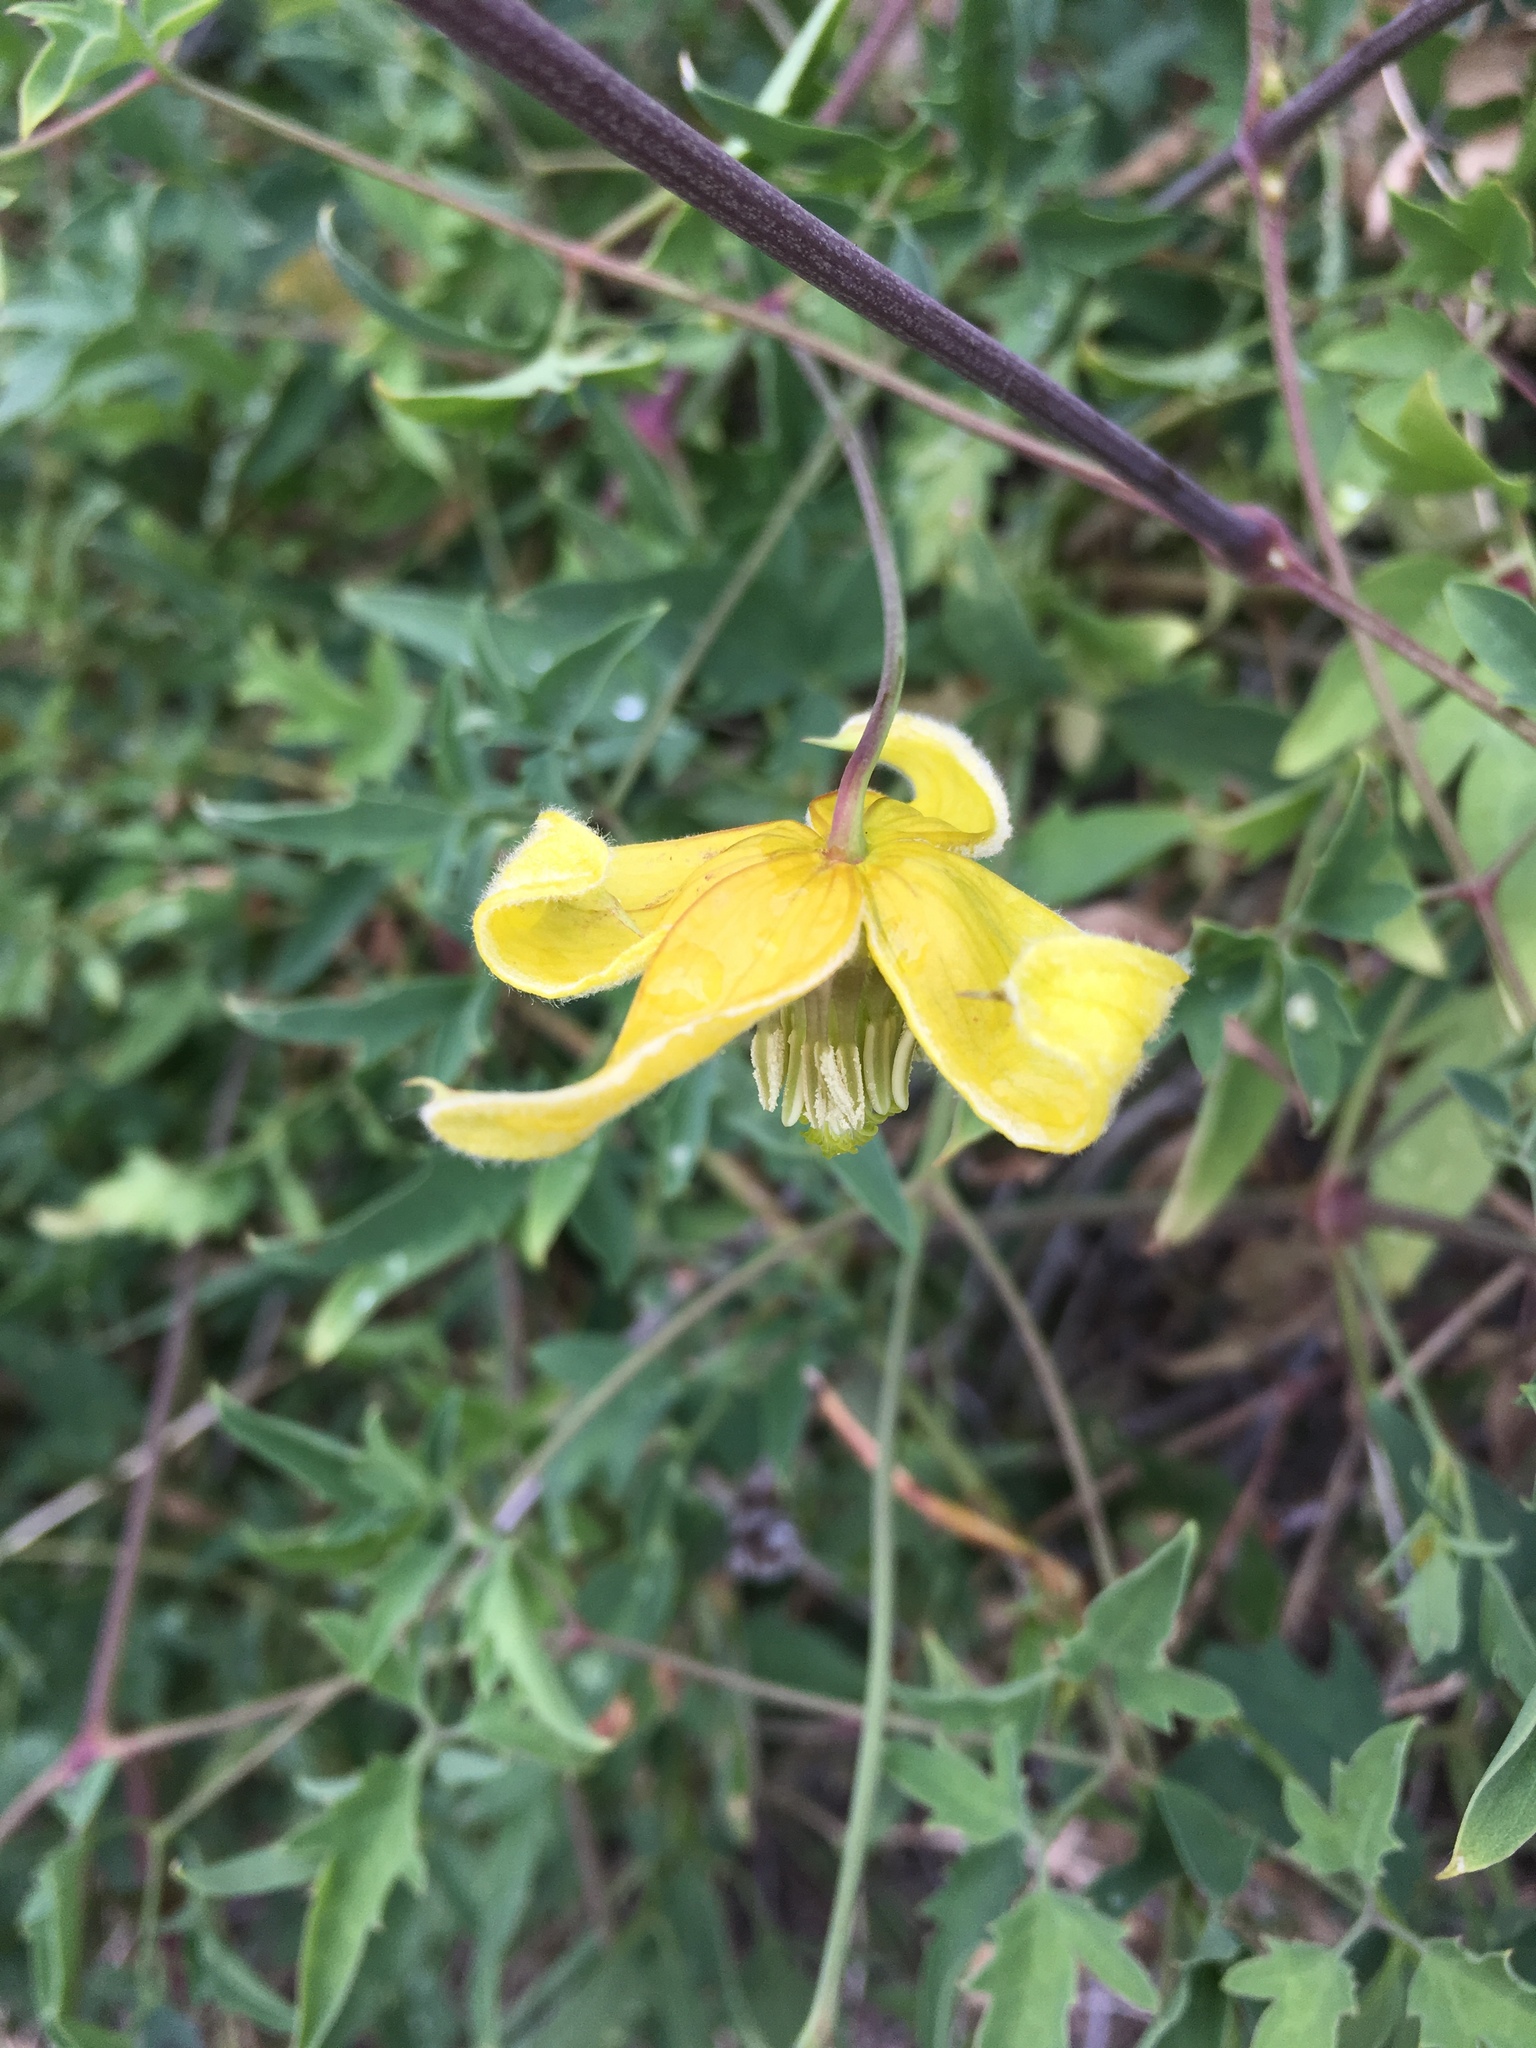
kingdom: Plantae
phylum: Tracheophyta
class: Magnoliopsida
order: Ranunculales
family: Ranunculaceae
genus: Clematis
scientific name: Clematis orientalis
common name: Oriental virgin's-bower
